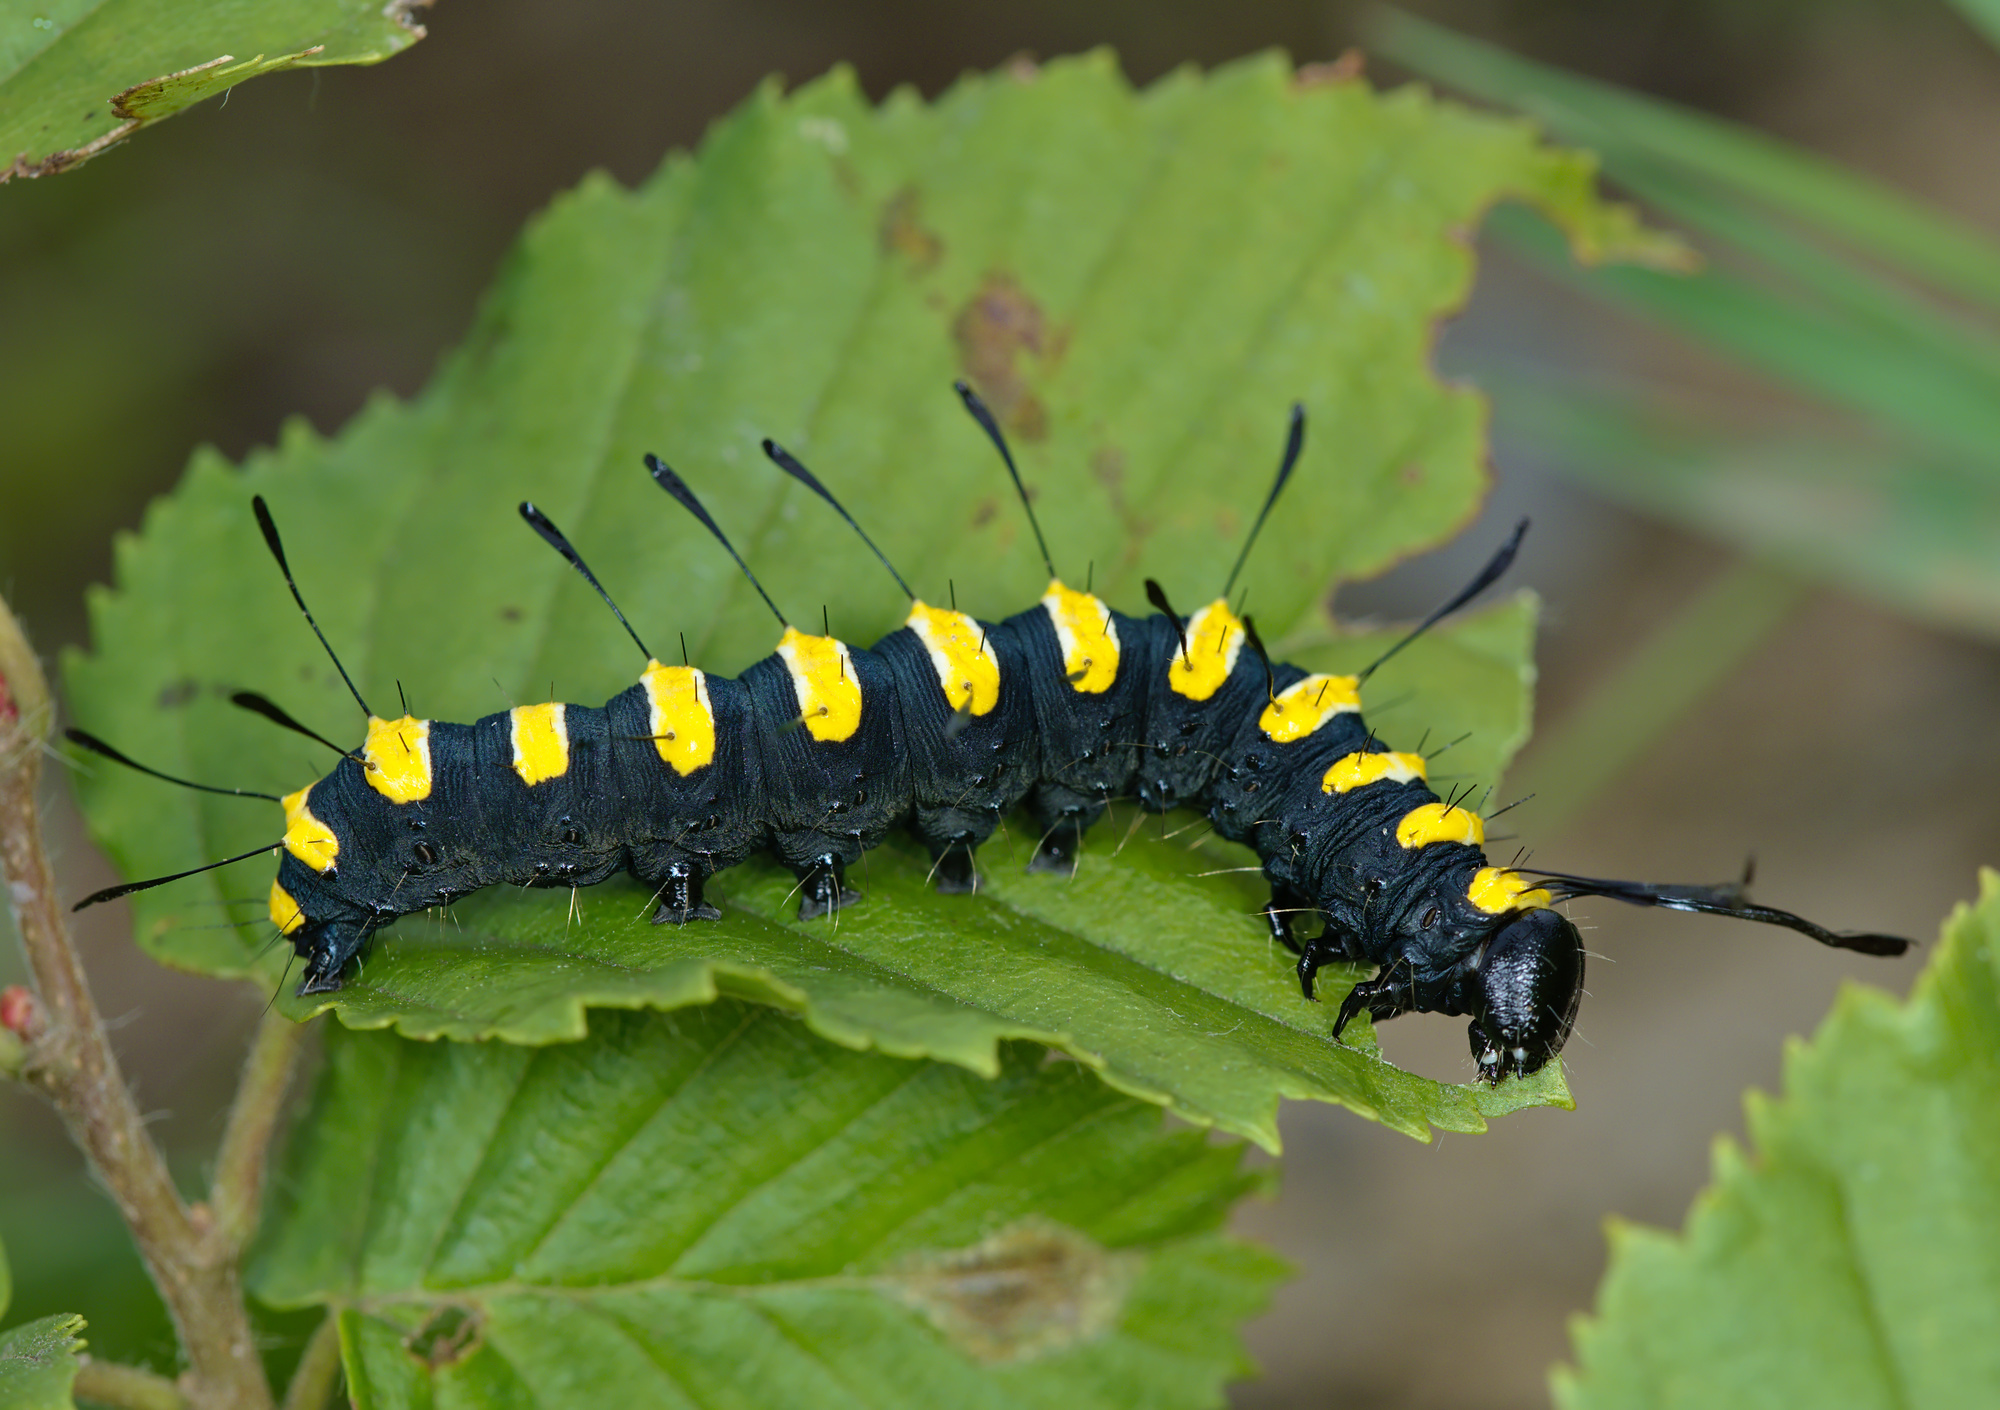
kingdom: Animalia
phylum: Arthropoda
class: Insecta
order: Lepidoptera
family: Noctuidae
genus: Acronicta
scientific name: Acronicta alni
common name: Alder moth
